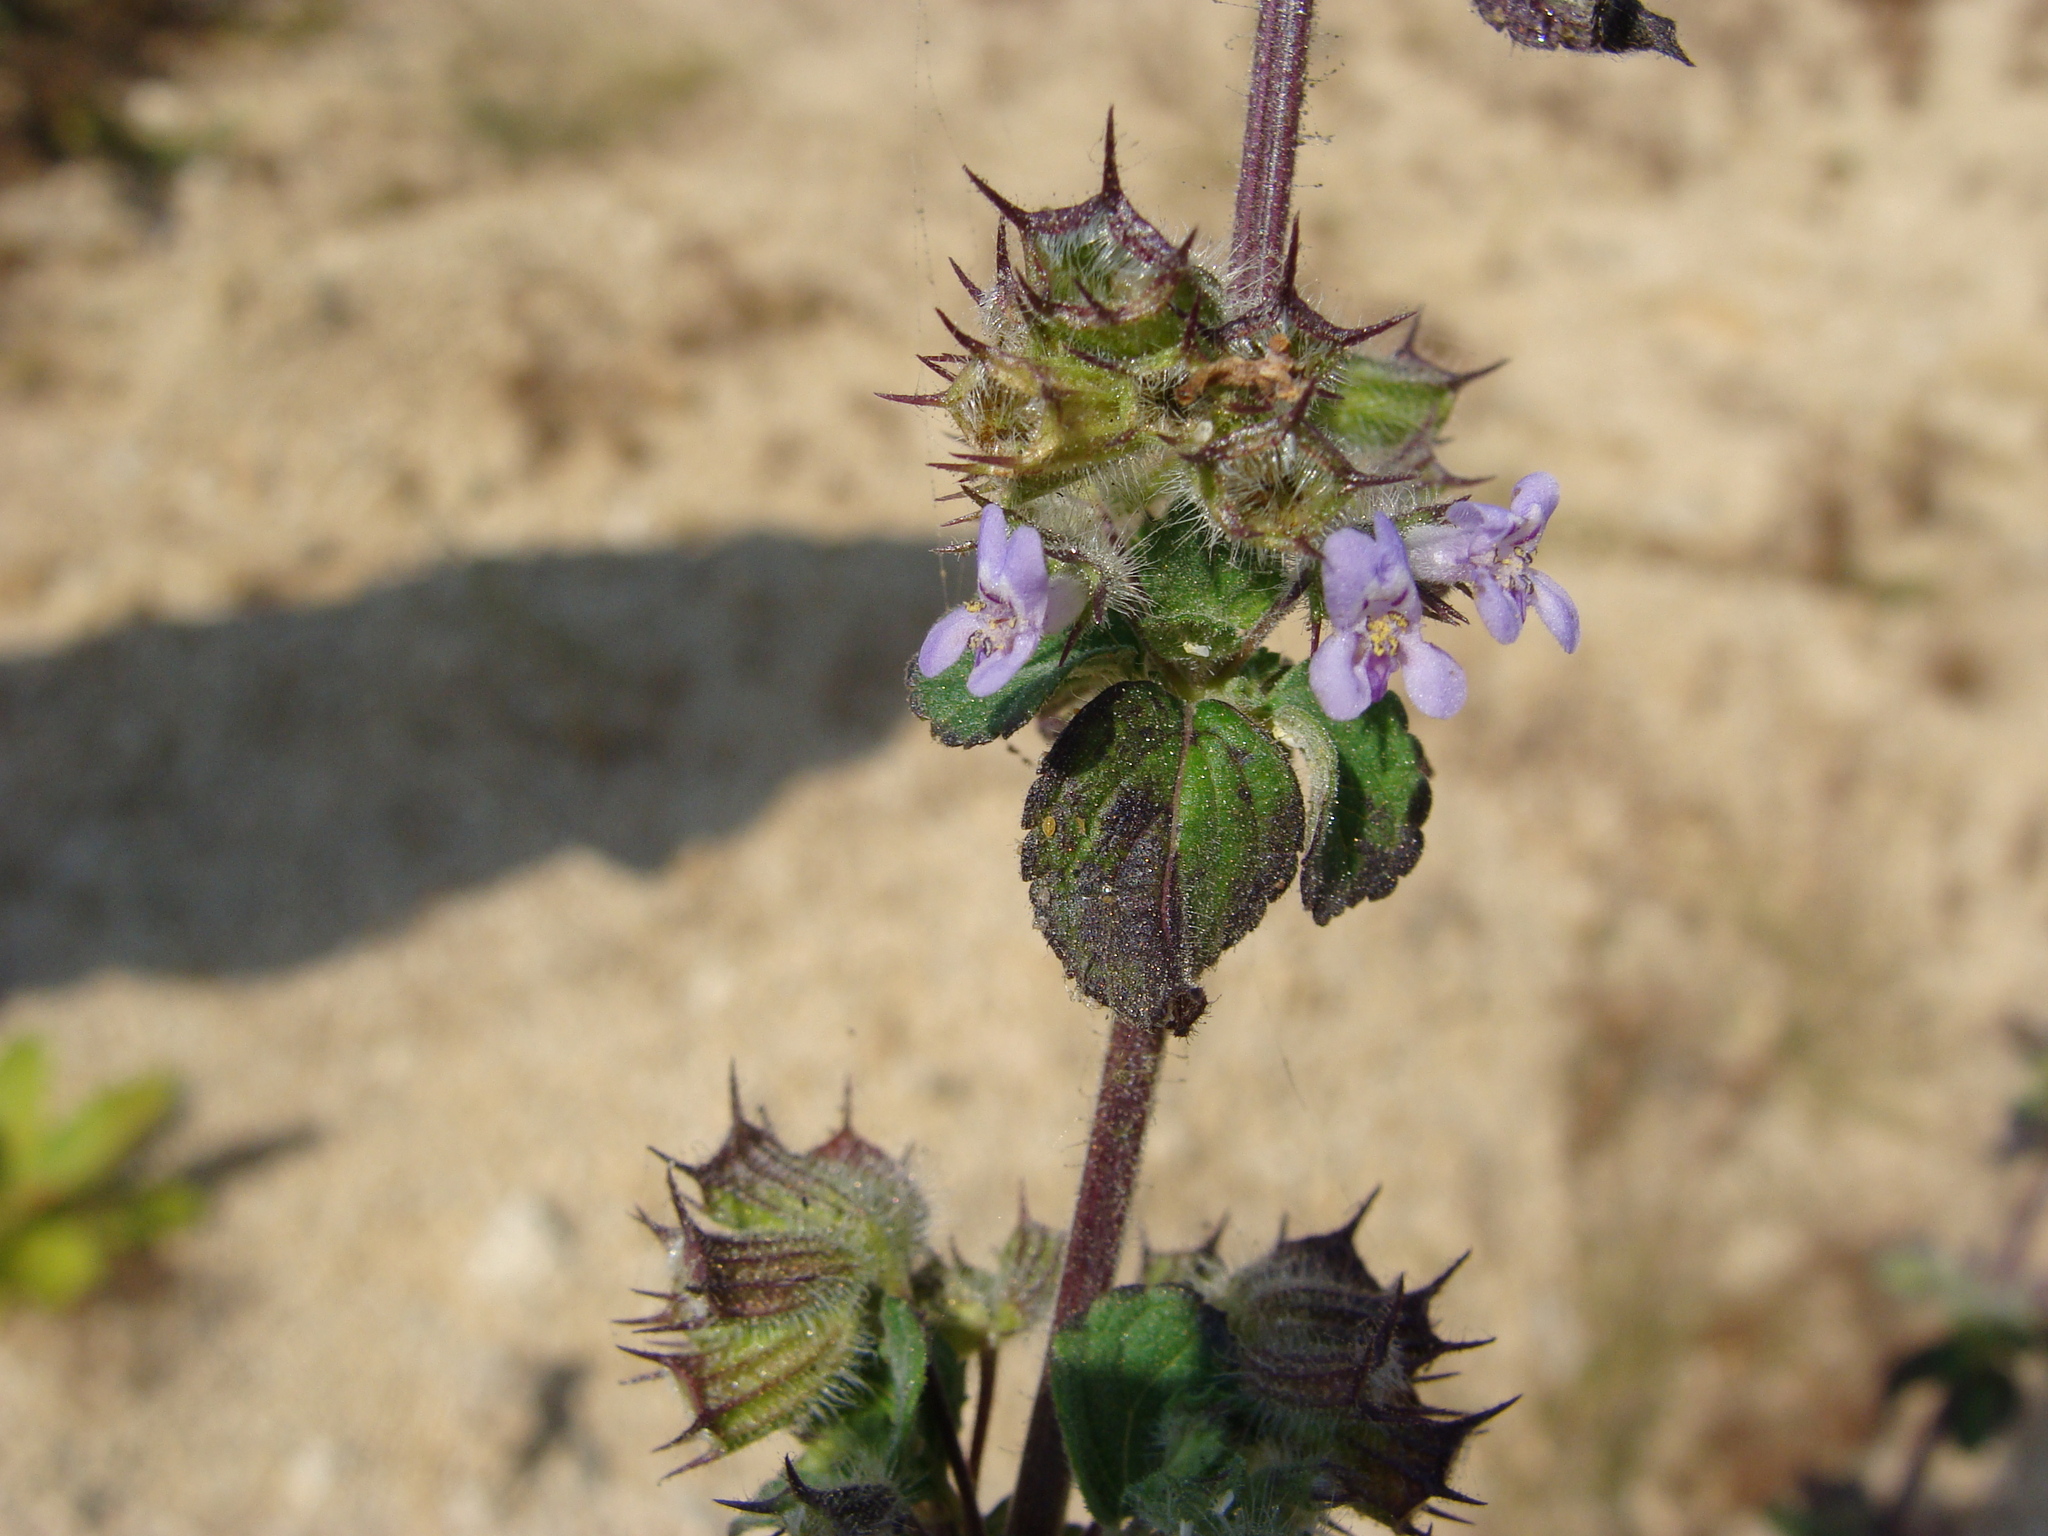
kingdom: Plantae
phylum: Tracheophyta
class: Magnoliopsida
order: Lamiales
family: Lamiaceae
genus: Mesosphaerum
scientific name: Mesosphaerum suaveolens
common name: Pignut
